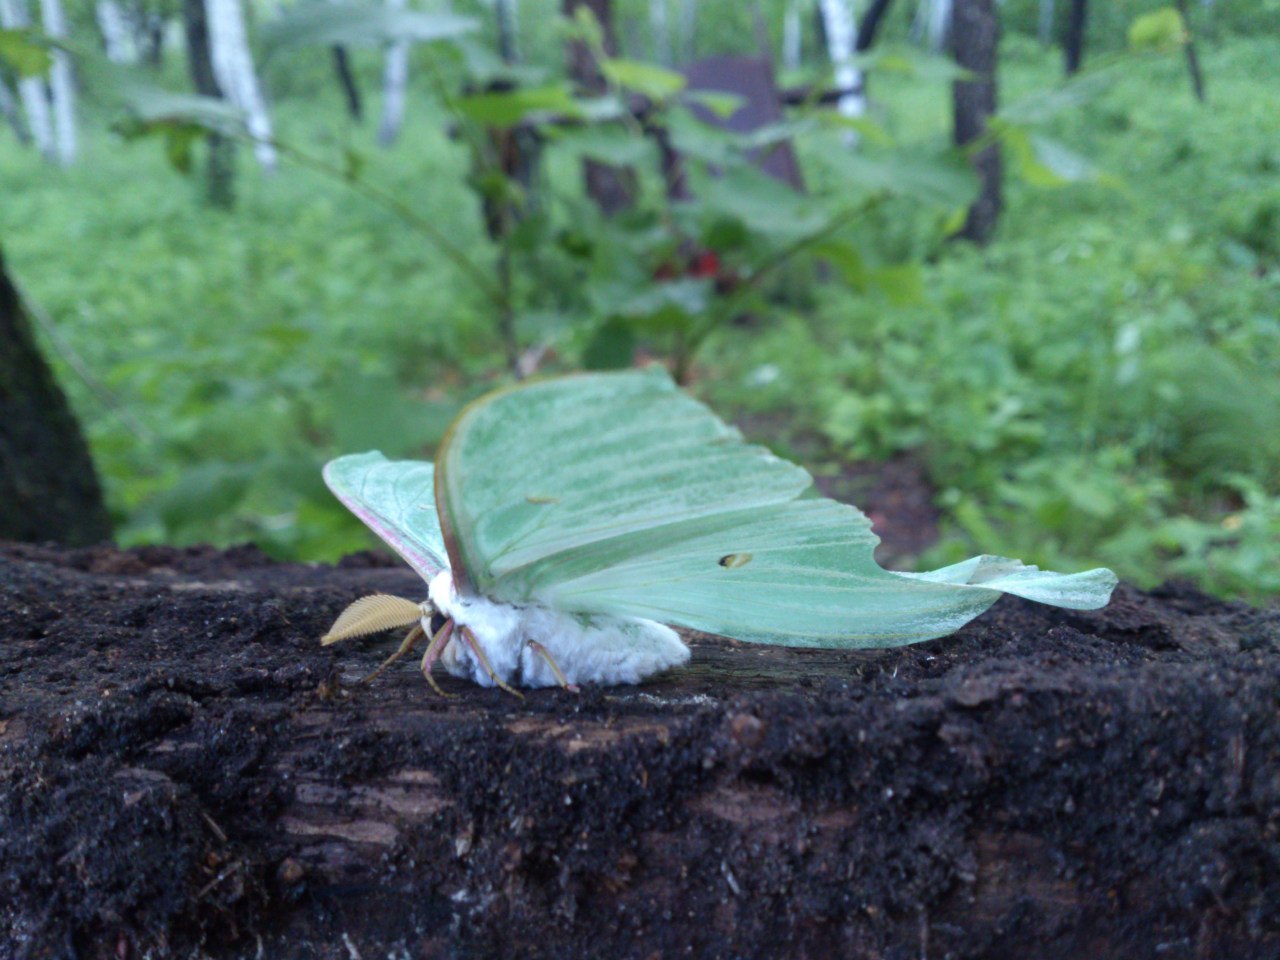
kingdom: Animalia
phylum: Arthropoda
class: Insecta
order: Lepidoptera
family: Saturniidae
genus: Actias
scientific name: Actias artemis
